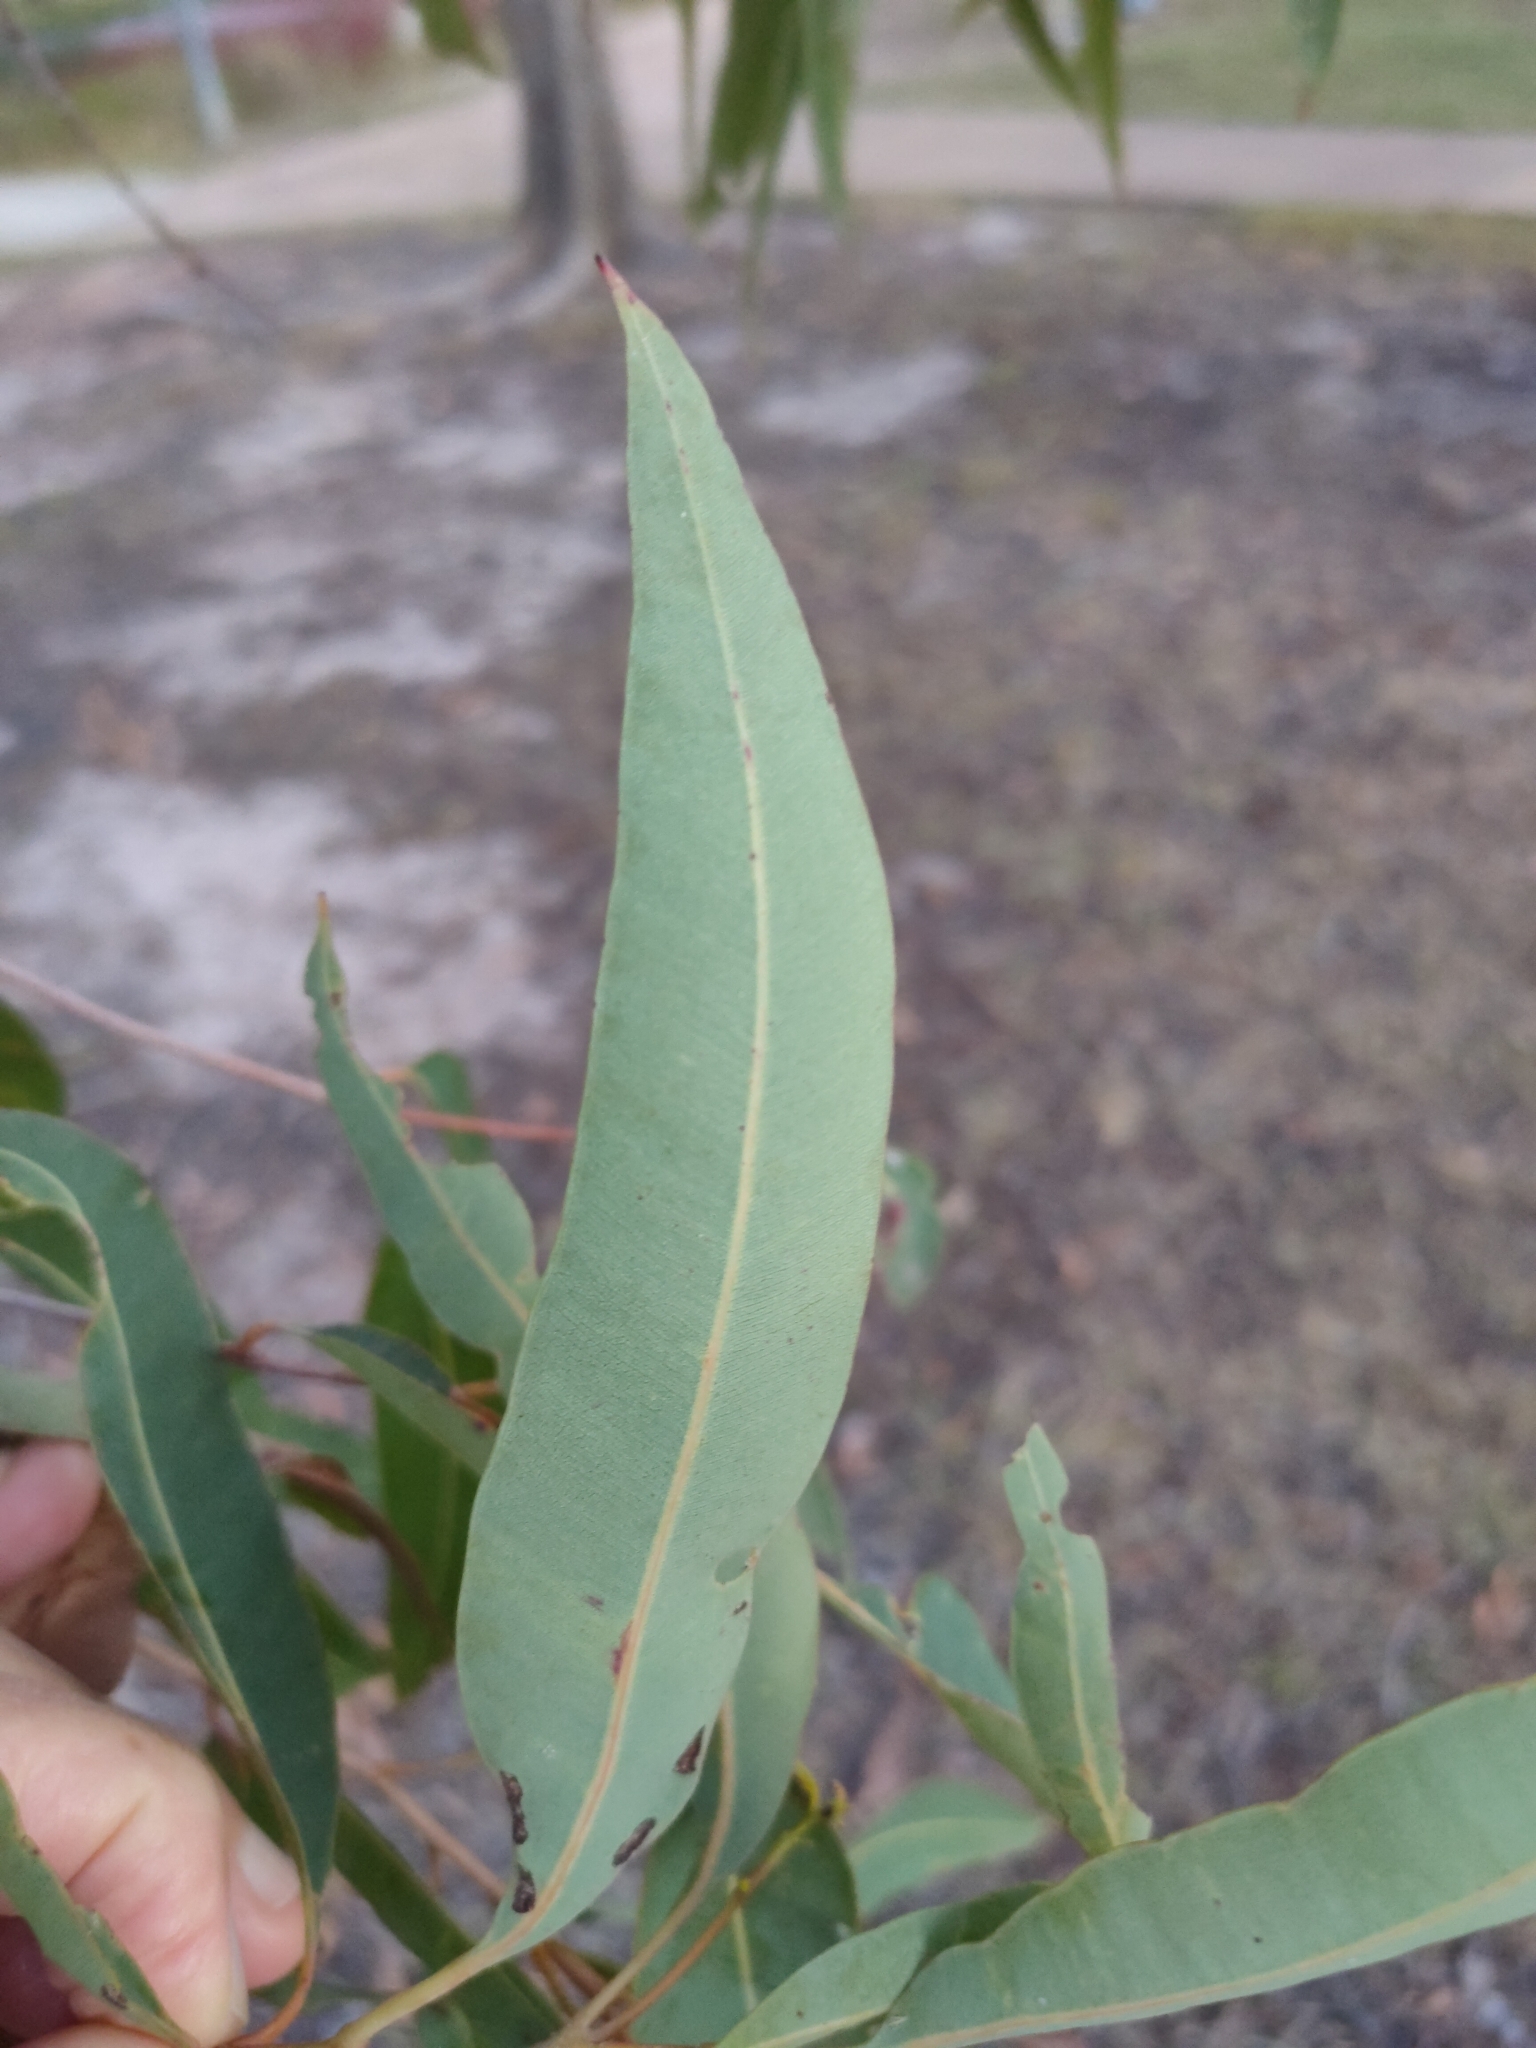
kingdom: Plantae
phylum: Tracheophyta
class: Magnoliopsida
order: Myrtales
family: Myrtaceae
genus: Corymbia
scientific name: Corymbia intermedia
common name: Pink-bloodwood
